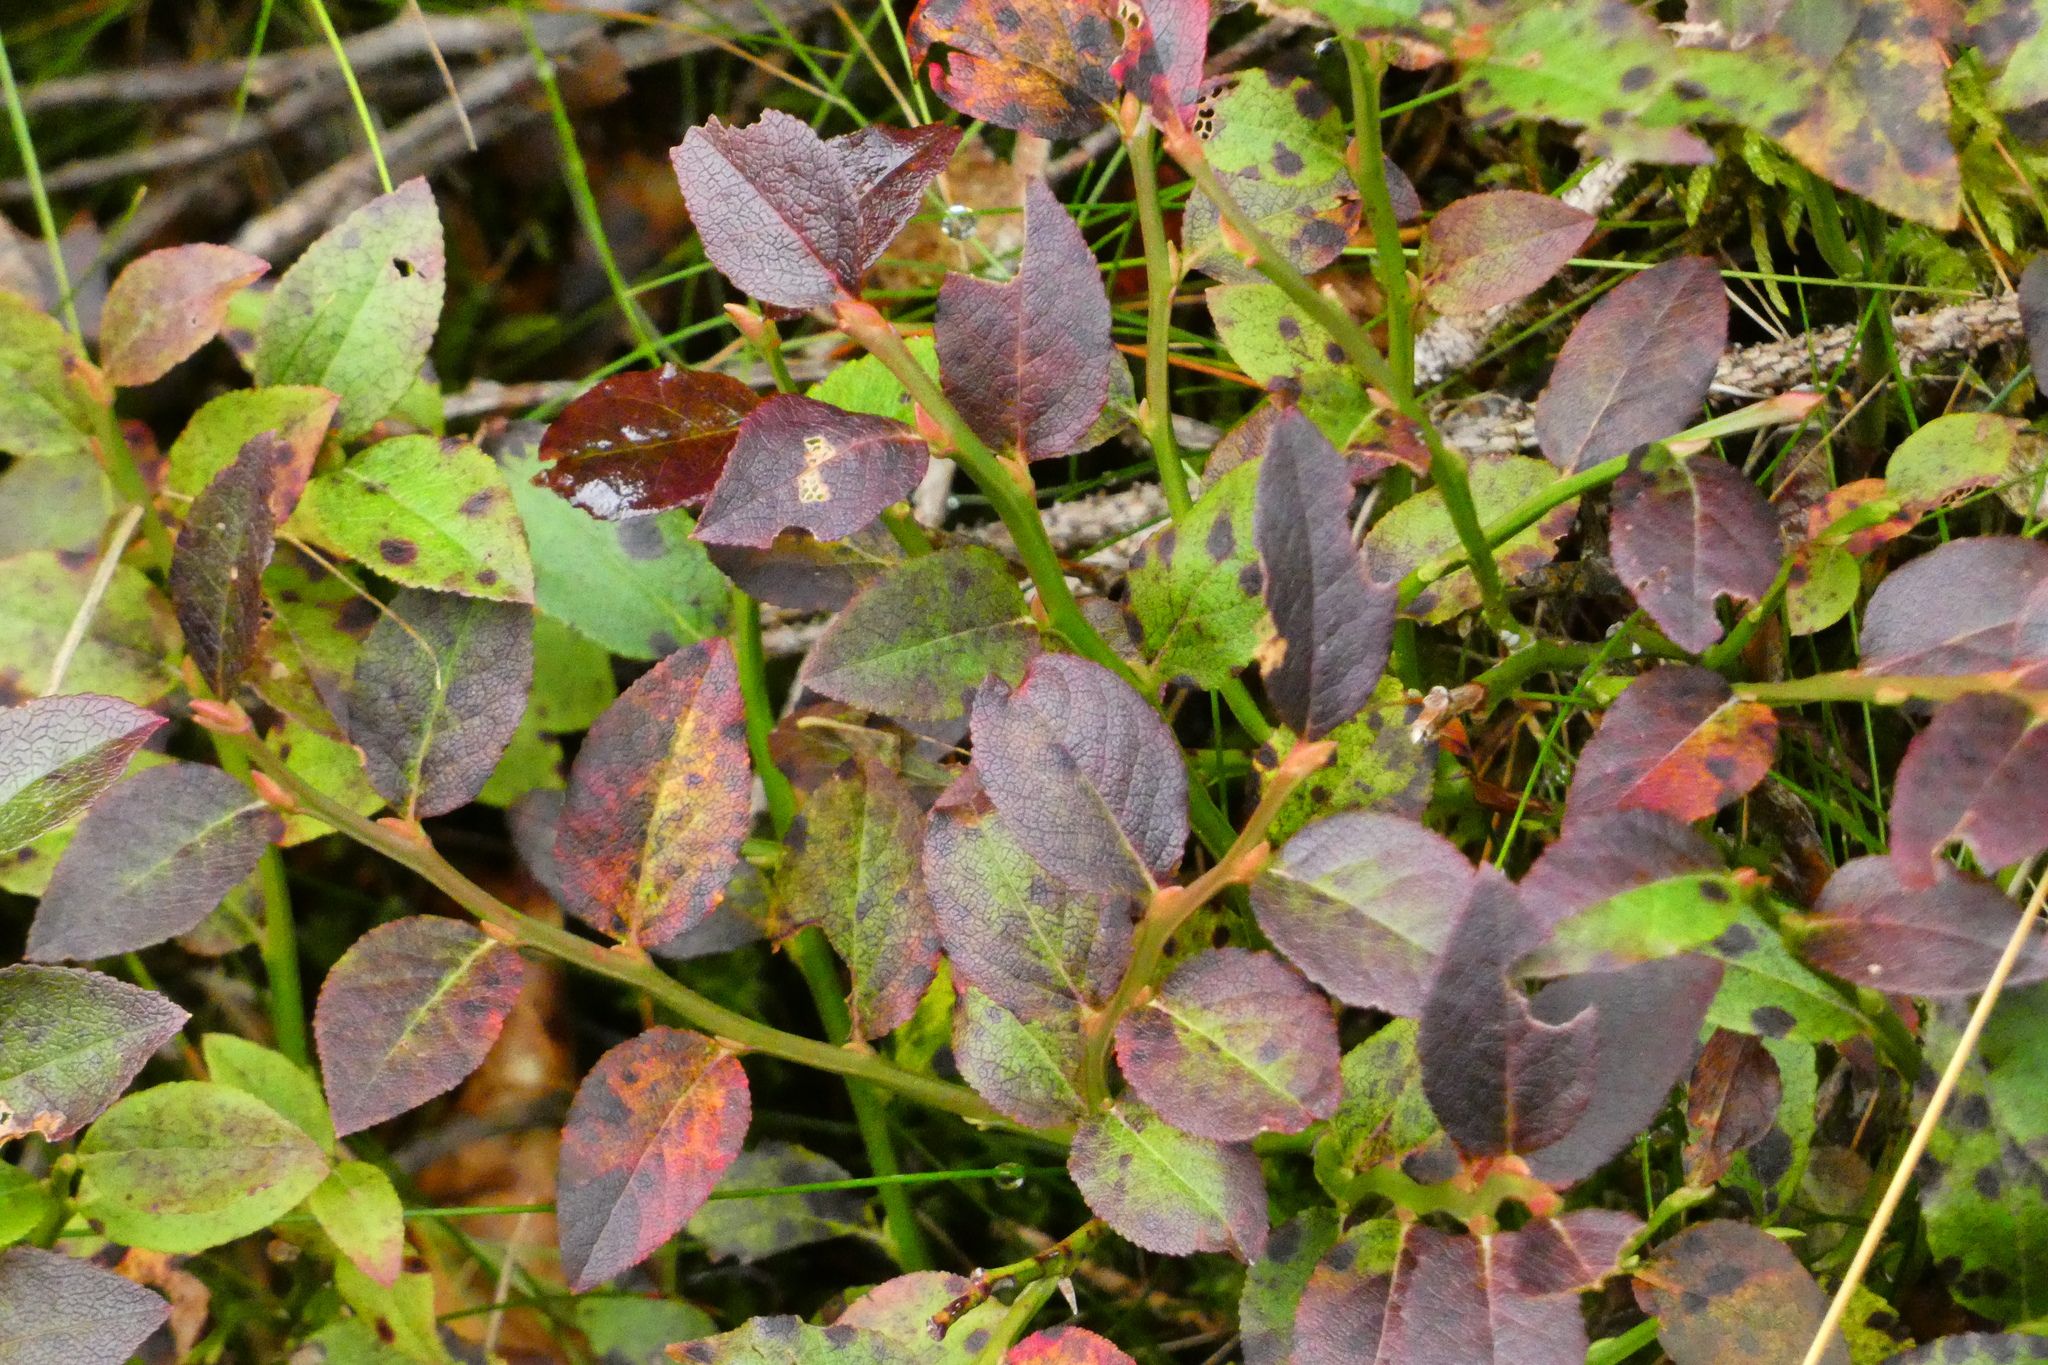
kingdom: Plantae
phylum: Tracheophyta
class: Magnoliopsida
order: Ericales
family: Ericaceae
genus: Vaccinium
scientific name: Vaccinium myrtillus
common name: Bilberry
